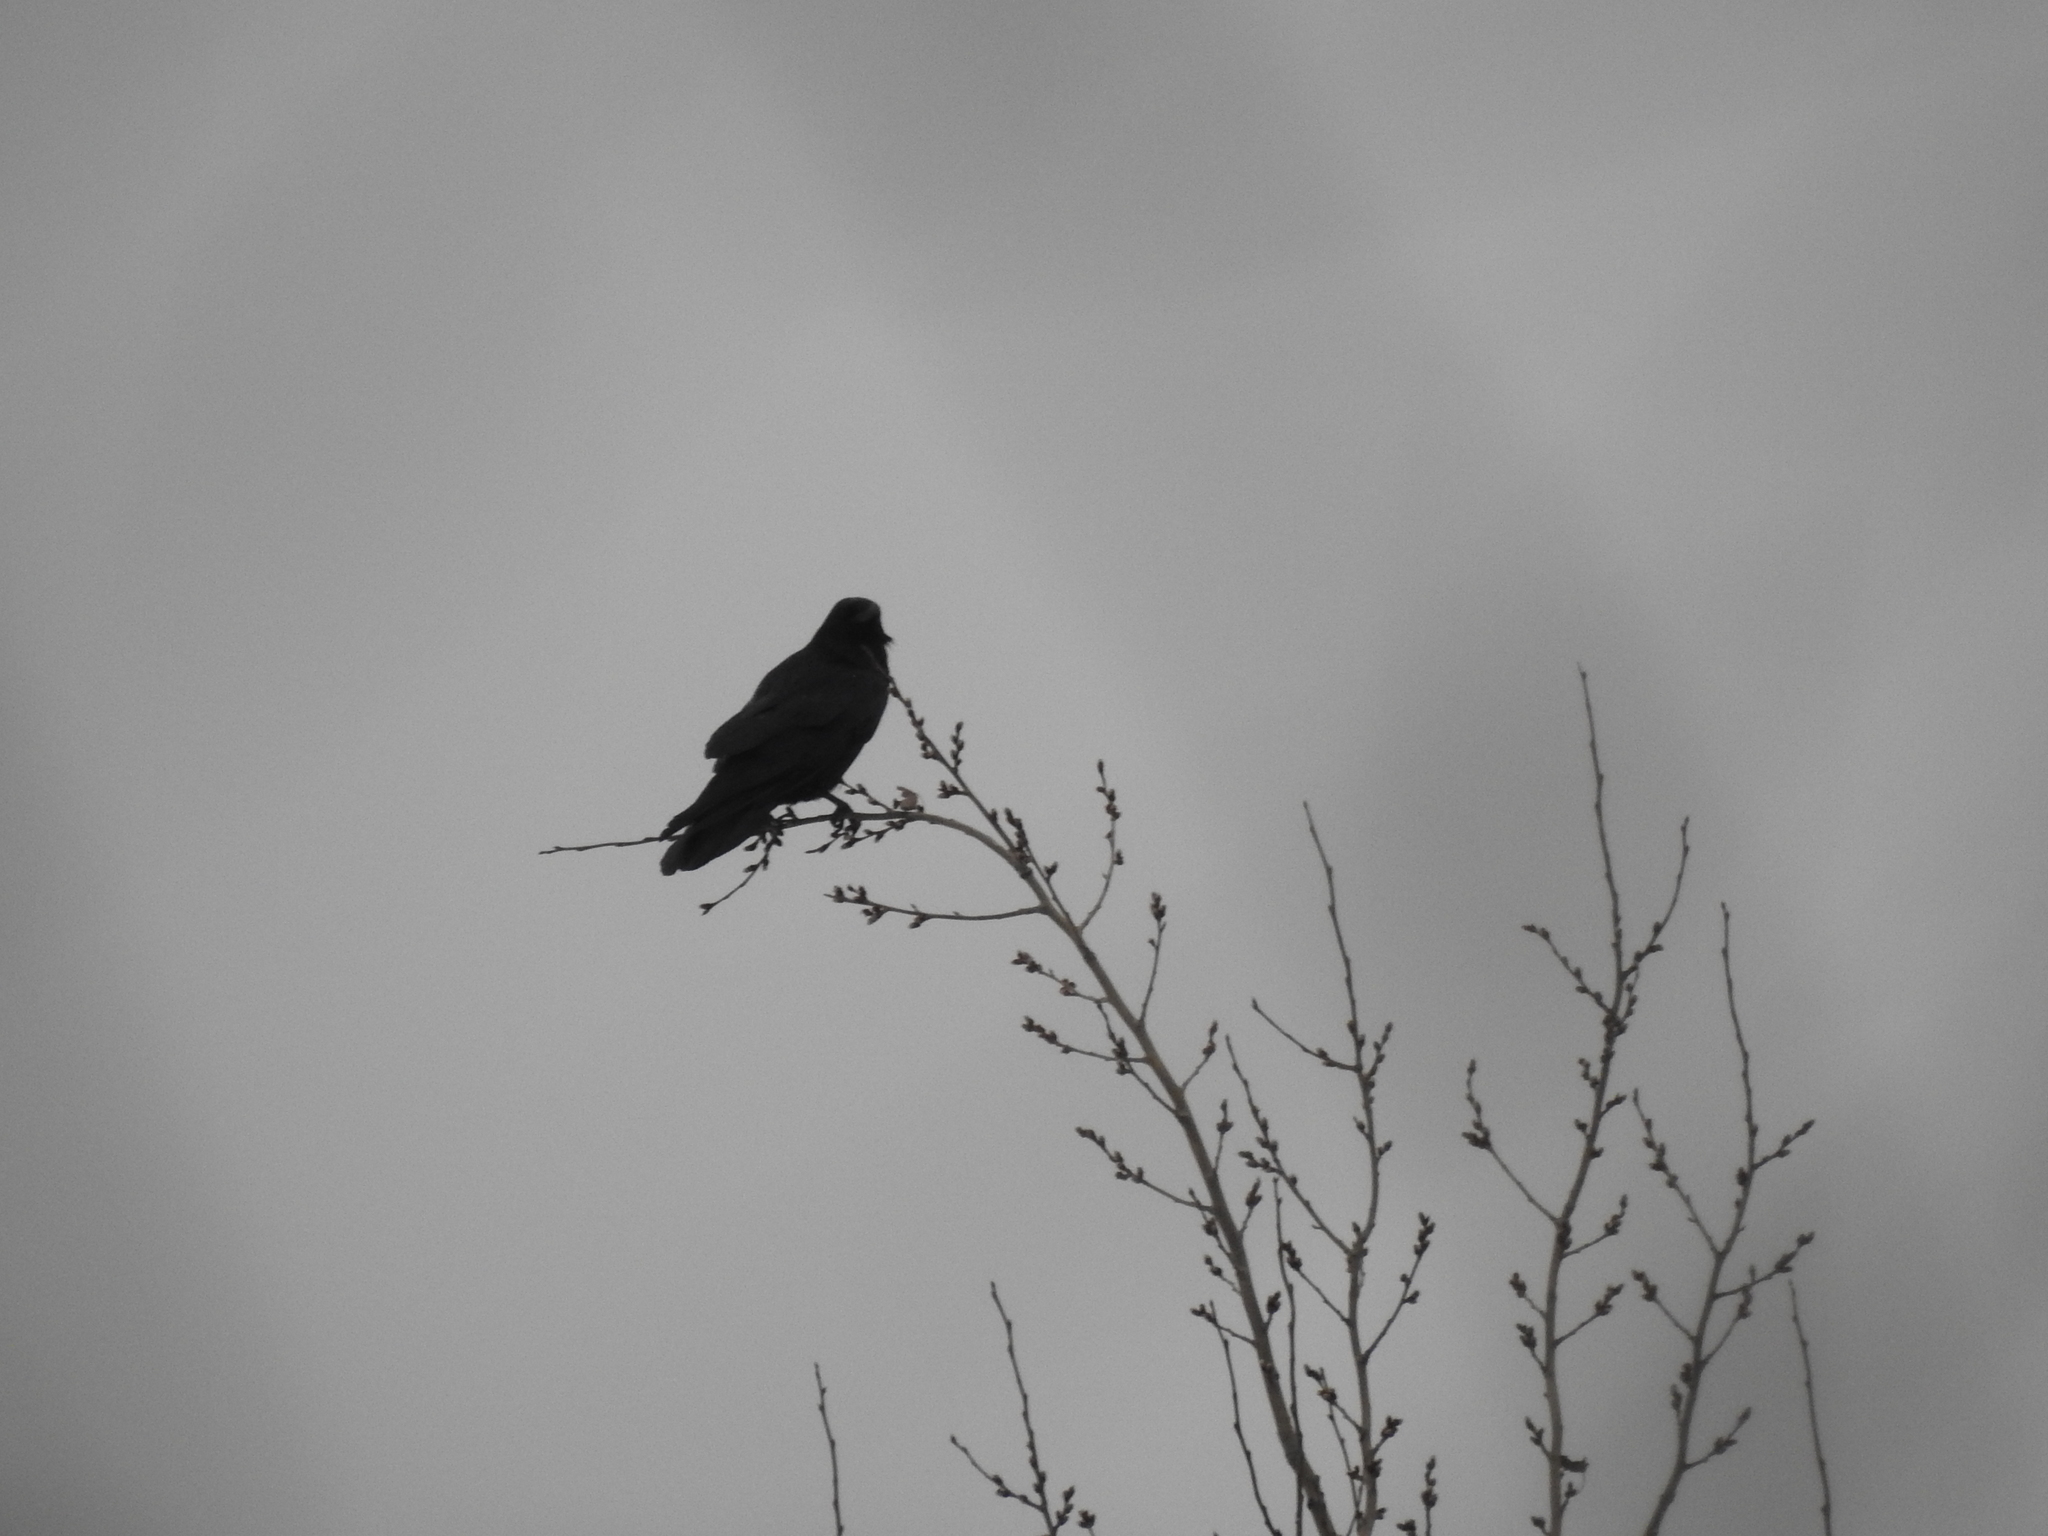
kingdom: Animalia
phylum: Chordata
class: Aves
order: Passeriformes
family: Corvidae
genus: Corvus
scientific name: Corvus corax
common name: Common raven
